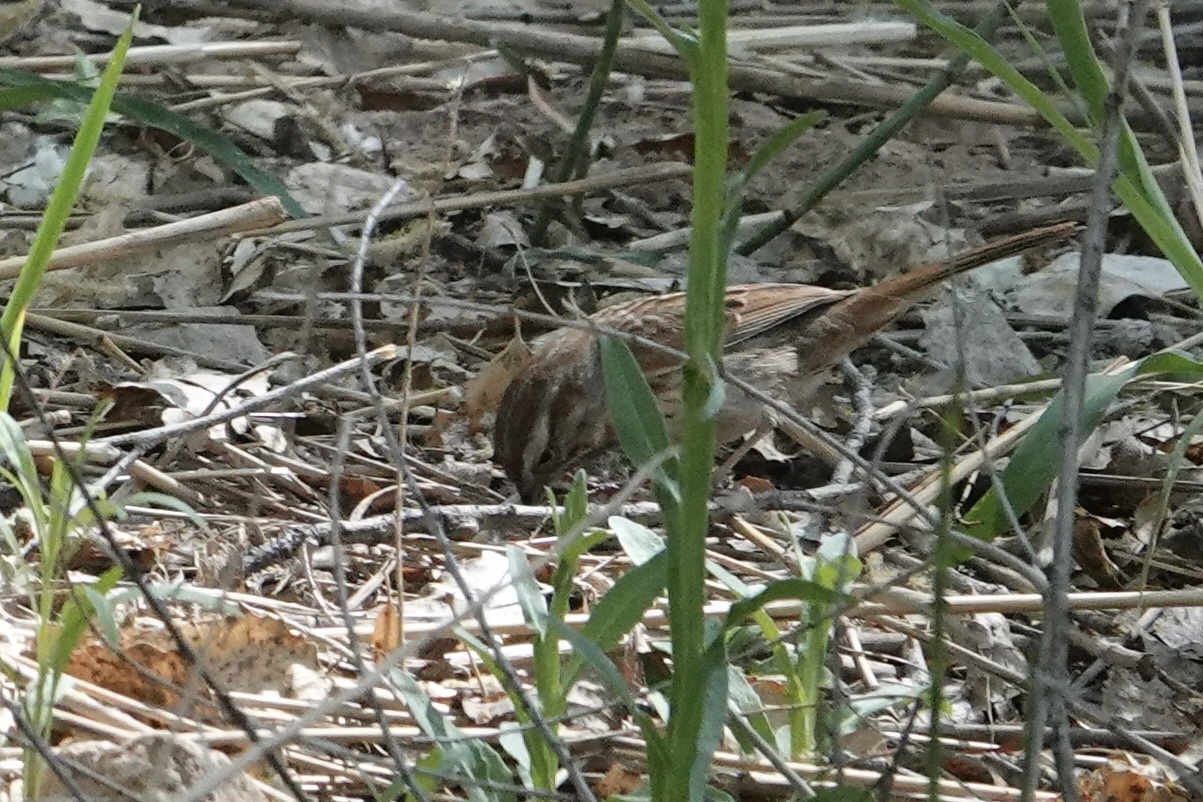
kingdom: Animalia
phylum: Chordata
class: Aves
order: Passeriformes
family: Passerellidae
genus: Melospiza
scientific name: Melospiza melodia
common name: Song sparrow
